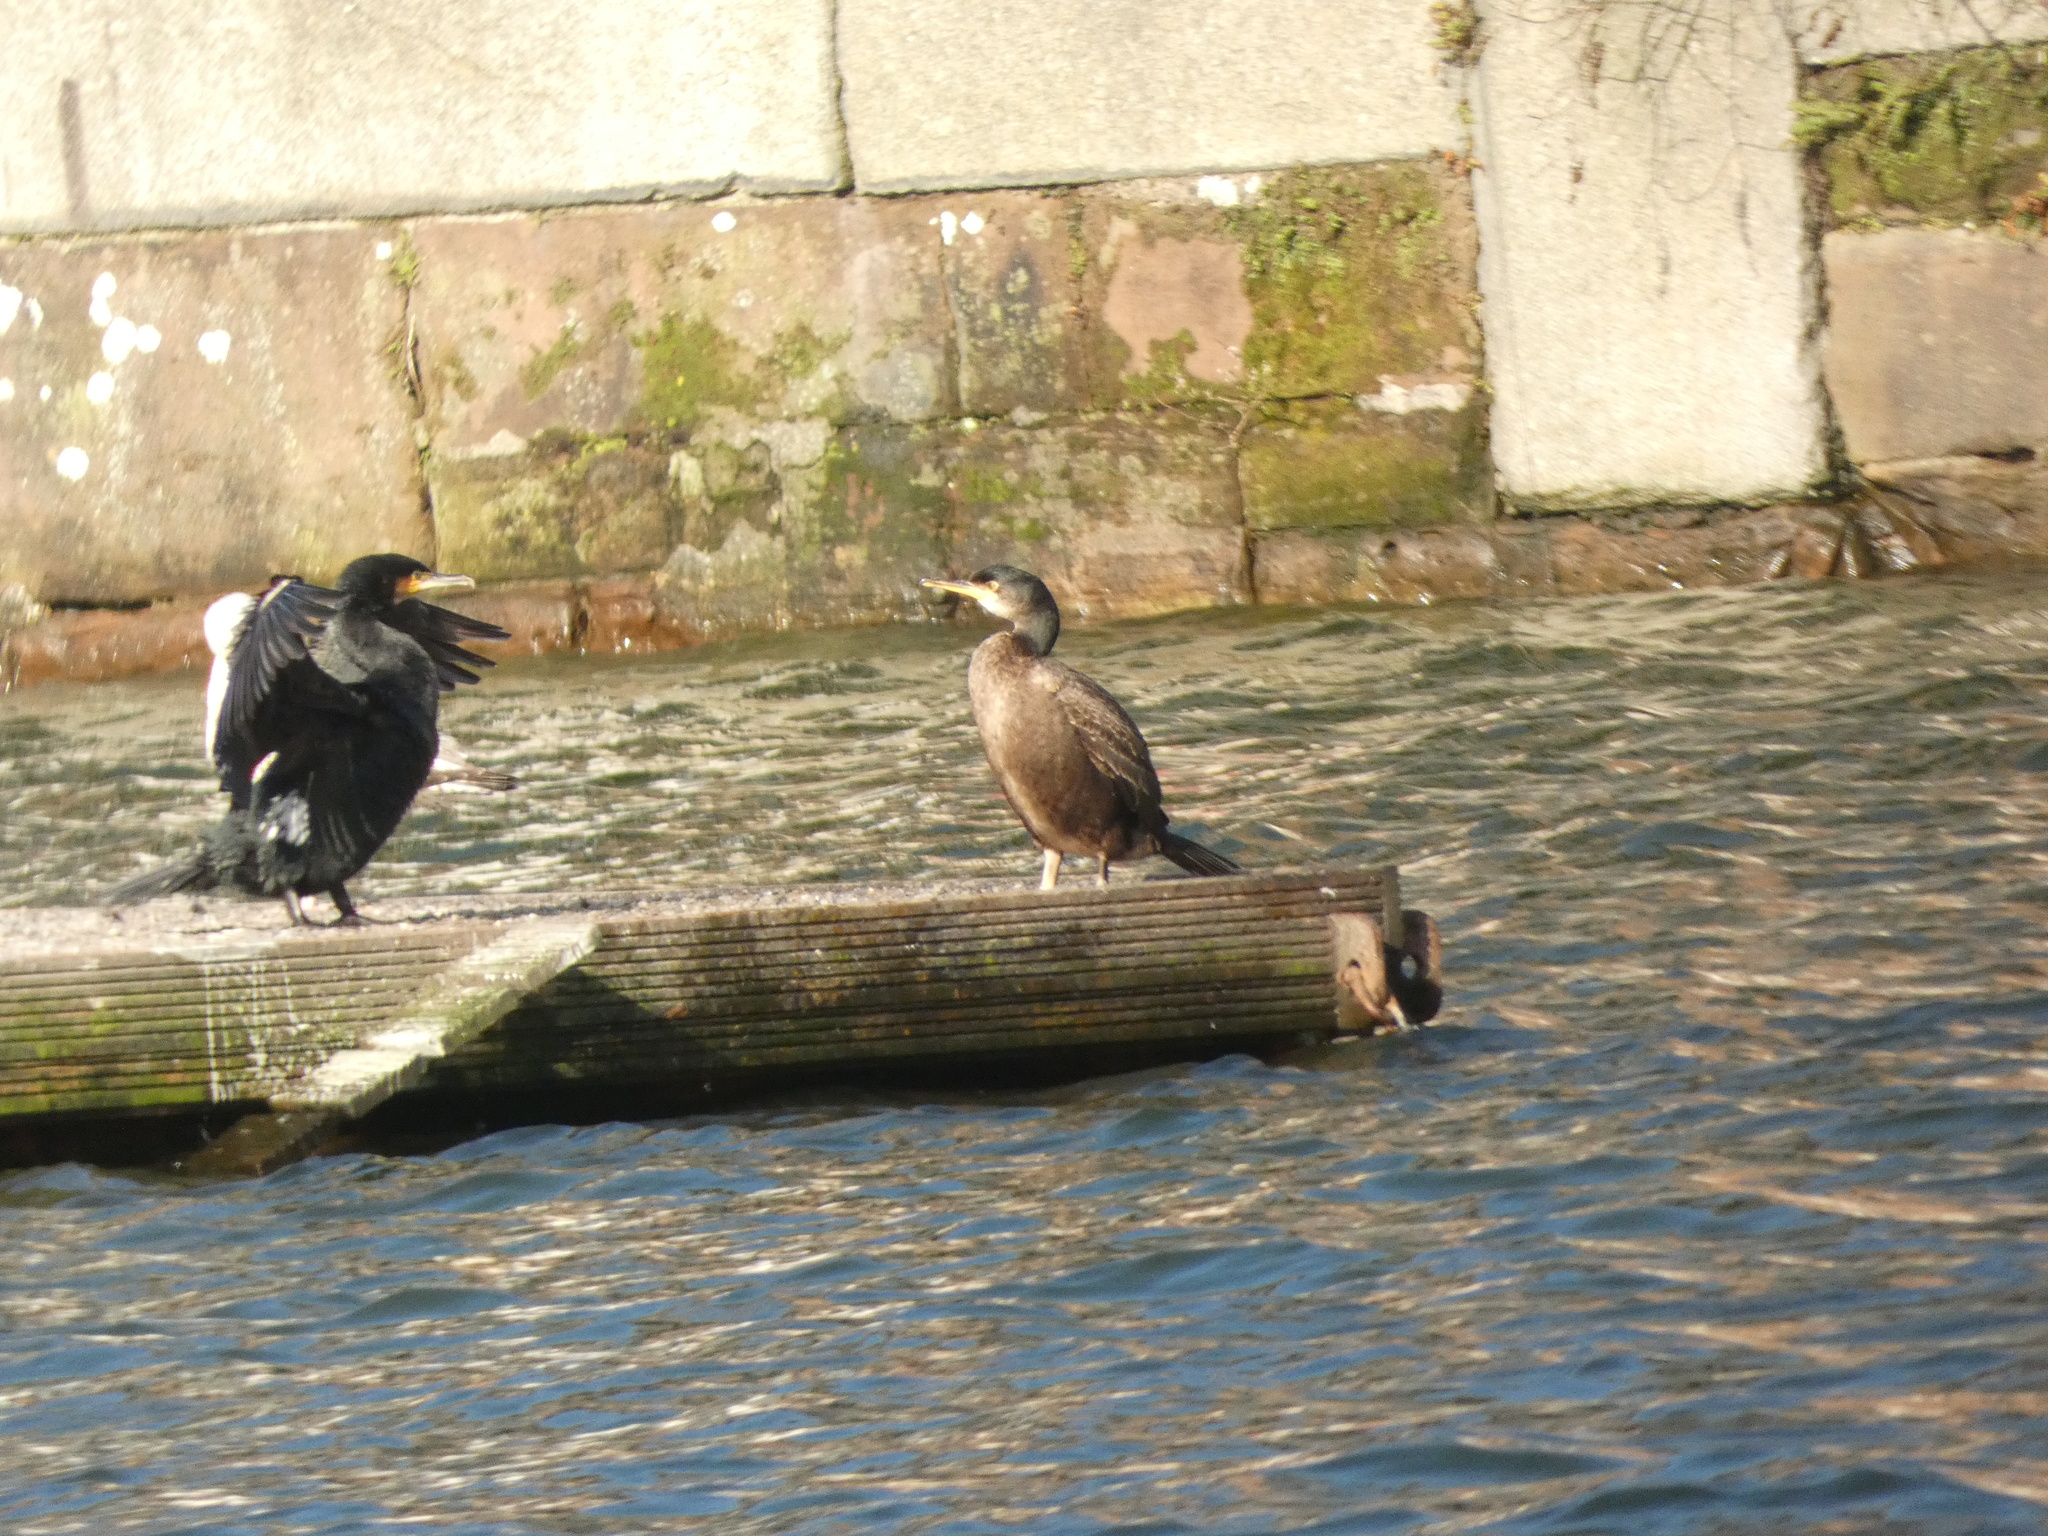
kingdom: Animalia
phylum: Chordata
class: Aves
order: Suliformes
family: Phalacrocoracidae
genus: Phalacrocorax
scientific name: Phalacrocorax carbo
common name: Great cormorant
